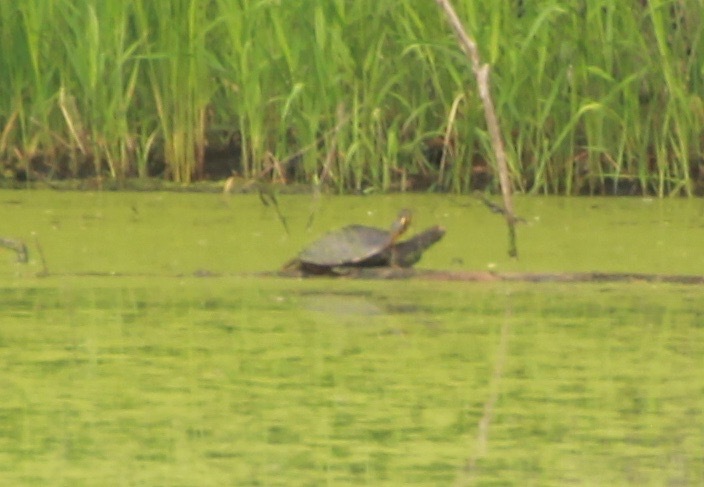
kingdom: Animalia
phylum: Chordata
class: Testudines
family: Emydidae
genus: Chrysemys
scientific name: Chrysemys picta
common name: Painted turtle
